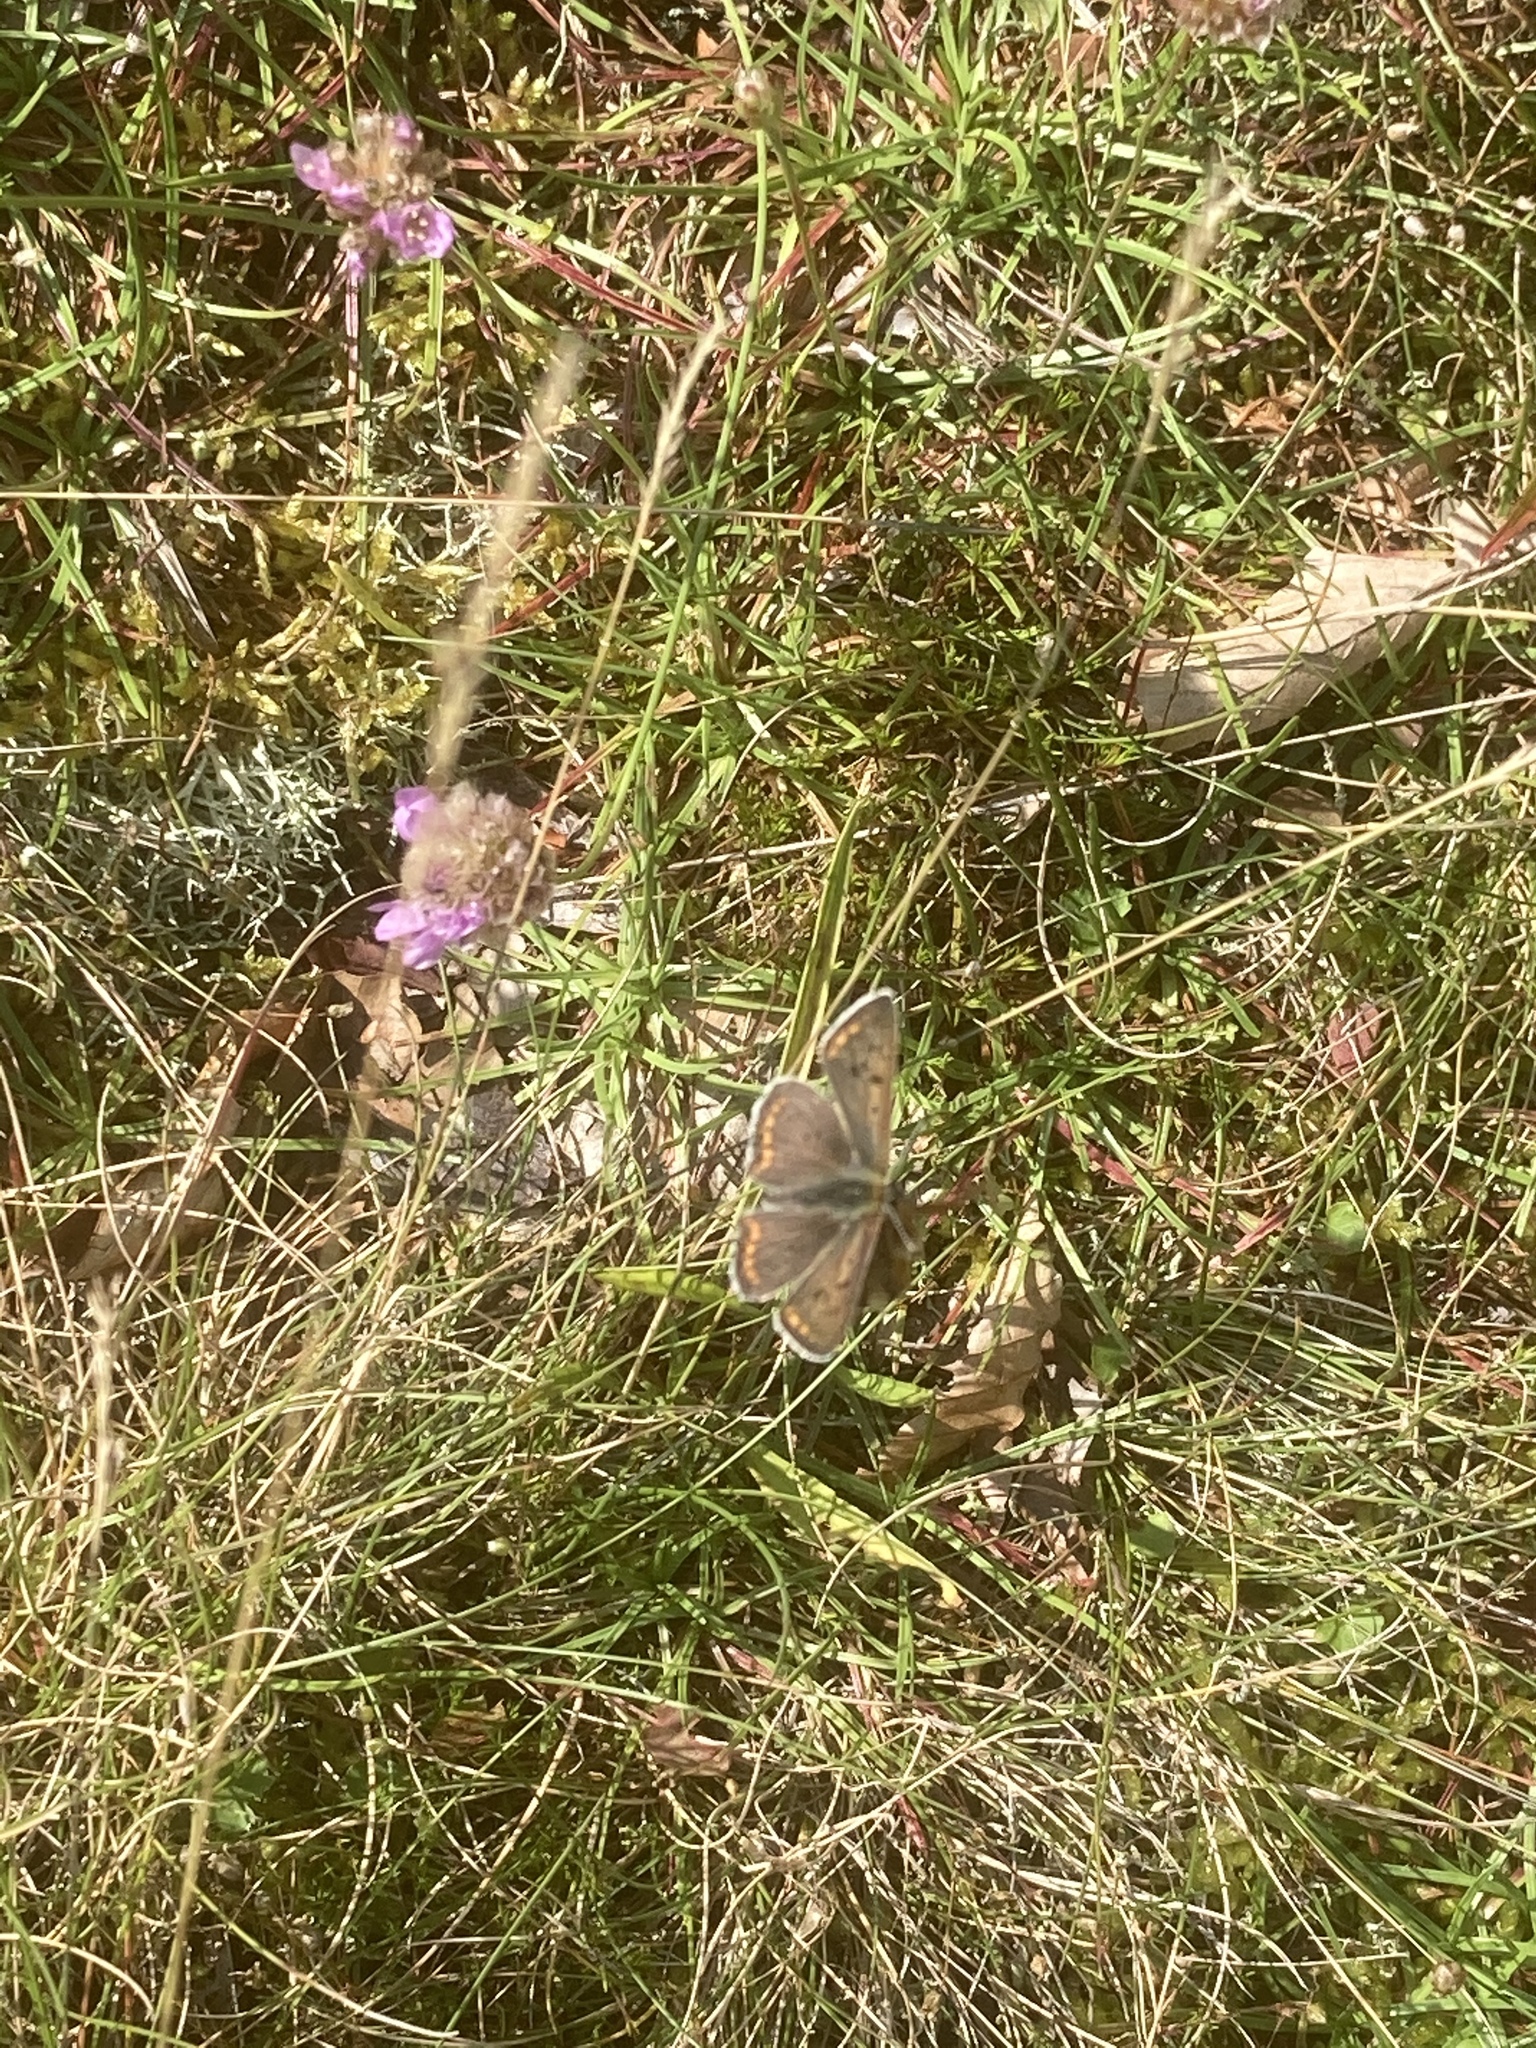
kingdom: Animalia
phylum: Arthropoda
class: Insecta
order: Lepidoptera
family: Lycaenidae
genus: Loweia
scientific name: Loweia tityrus
